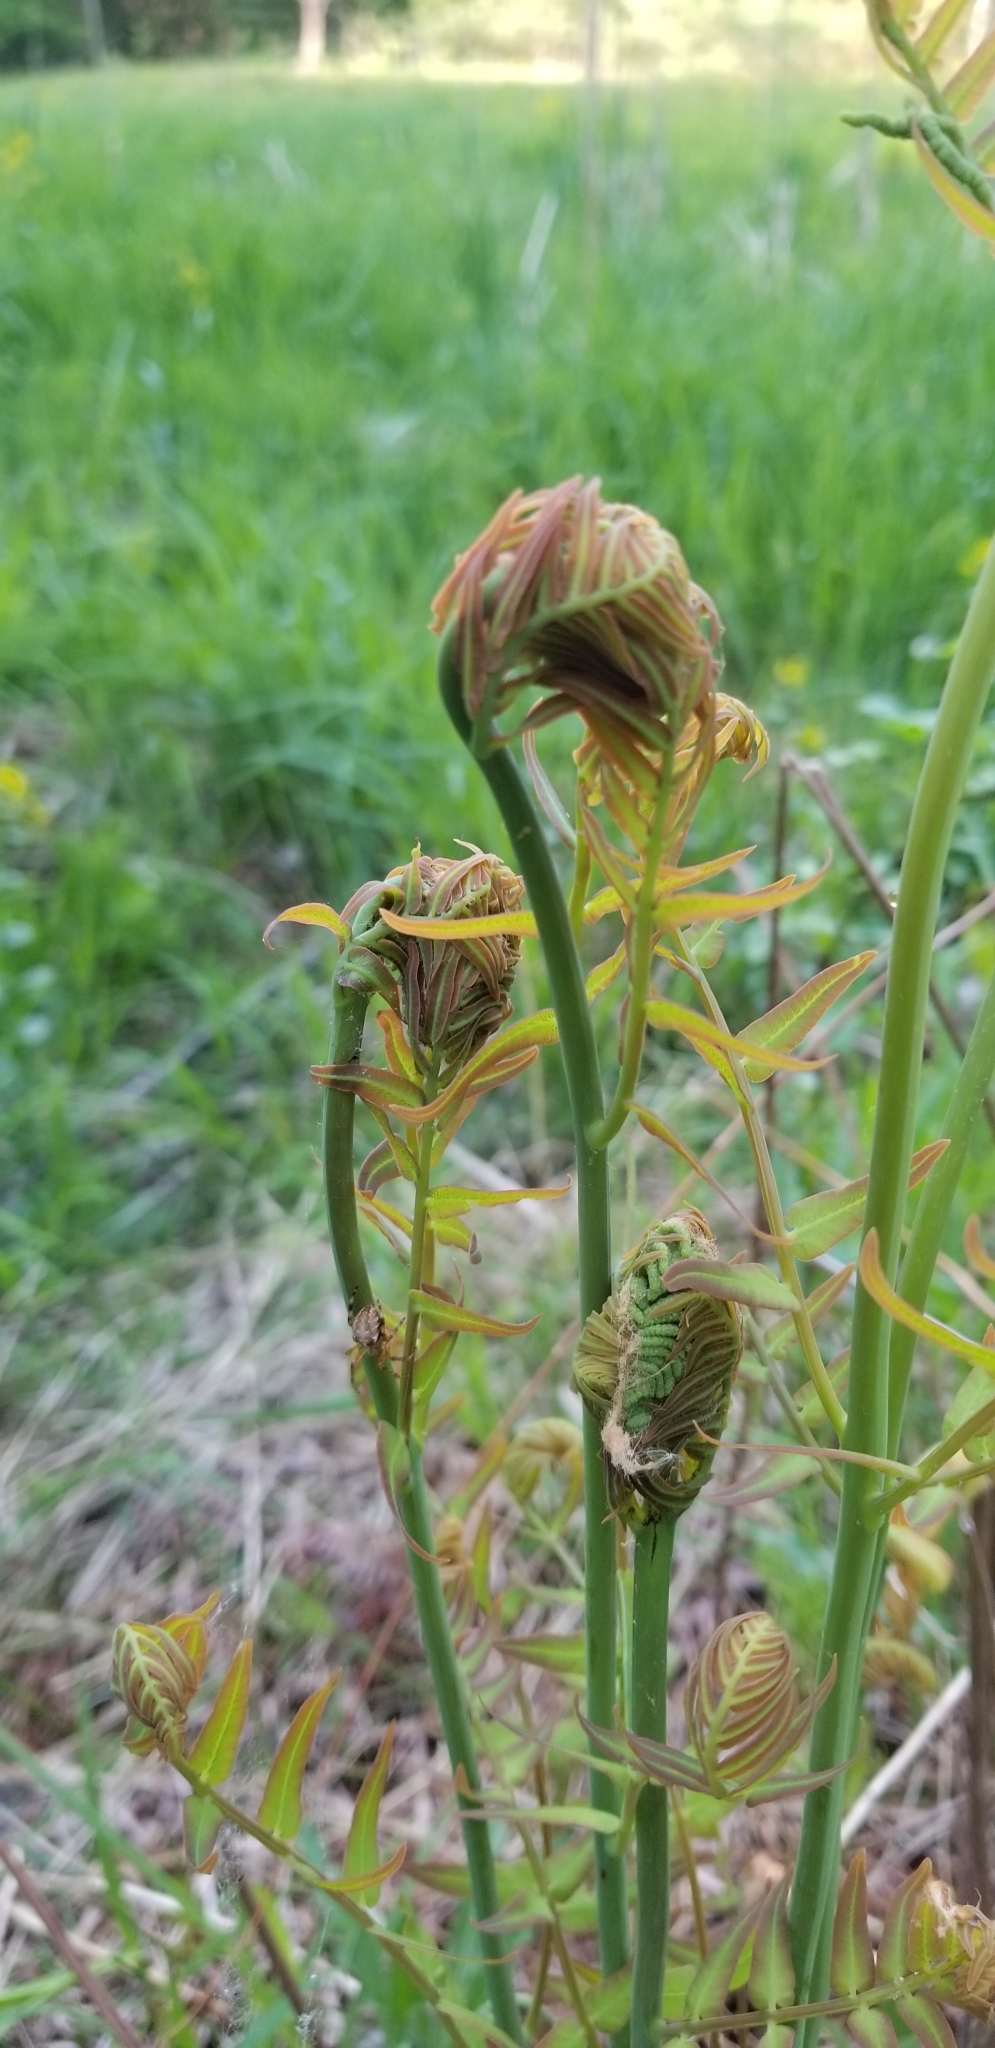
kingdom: Plantae
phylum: Tracheophyta
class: Polypodiopsida
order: Osmundales
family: Osmundaceae
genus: Osmunda
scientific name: Osmunda spectabilis
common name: American royal fern
